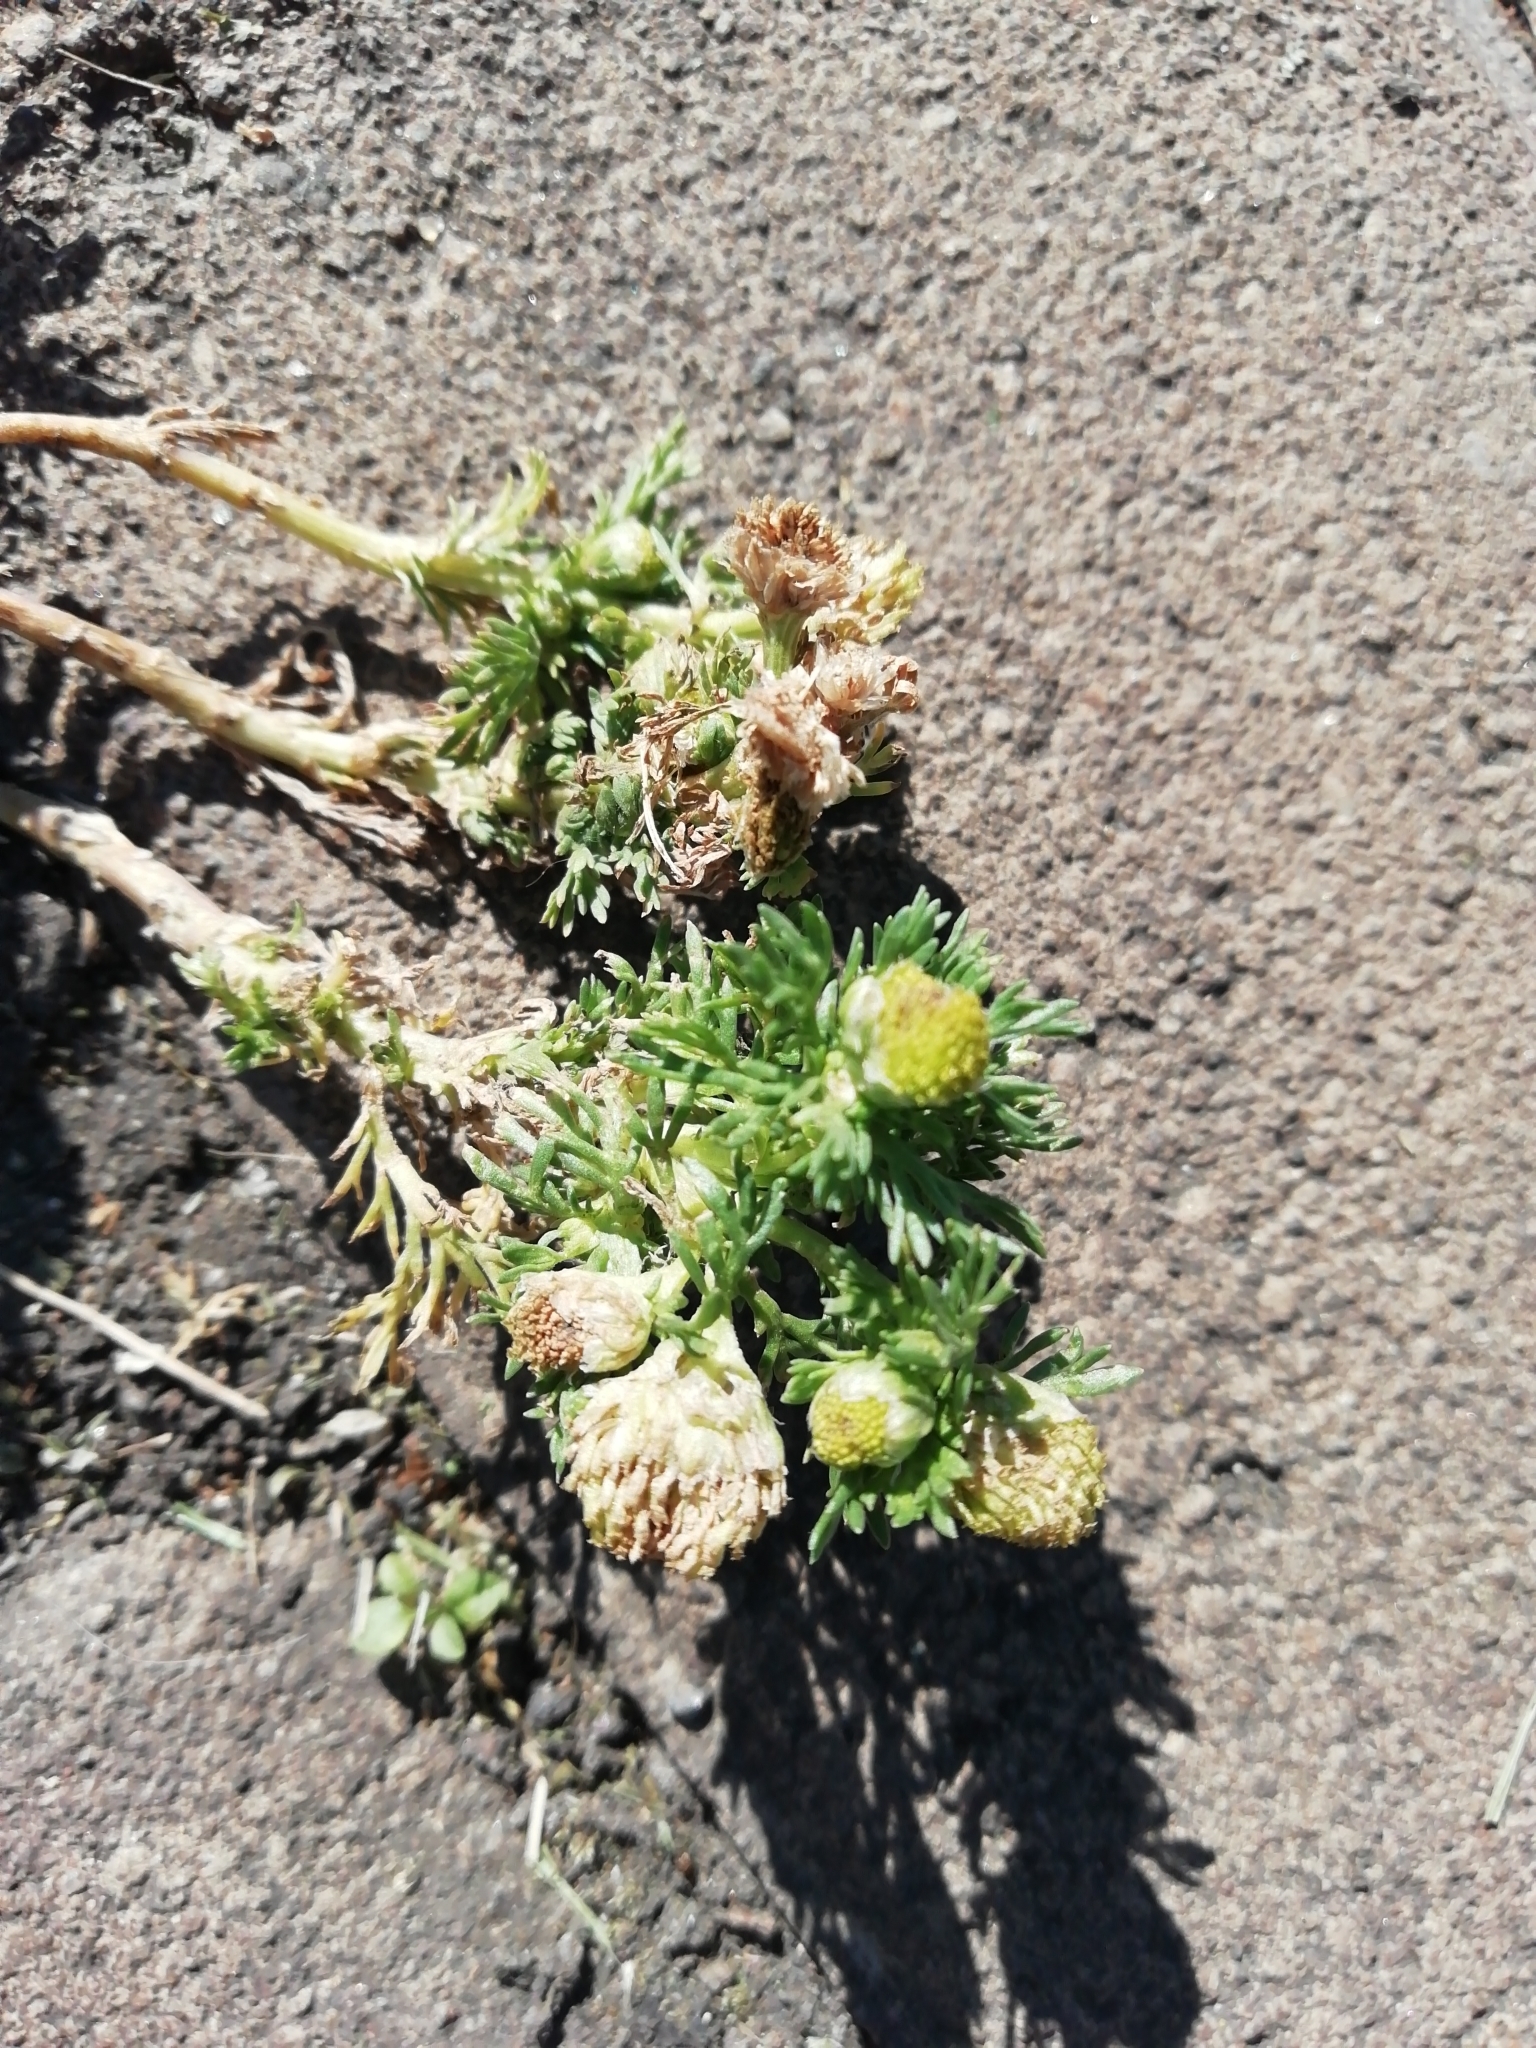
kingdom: Plantae
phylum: Tracheophyta
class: Magnoliopsida
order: Asterales
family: Asteraceae
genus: Matricaria
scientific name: Matricaria discoidea
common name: Disc mayweed
